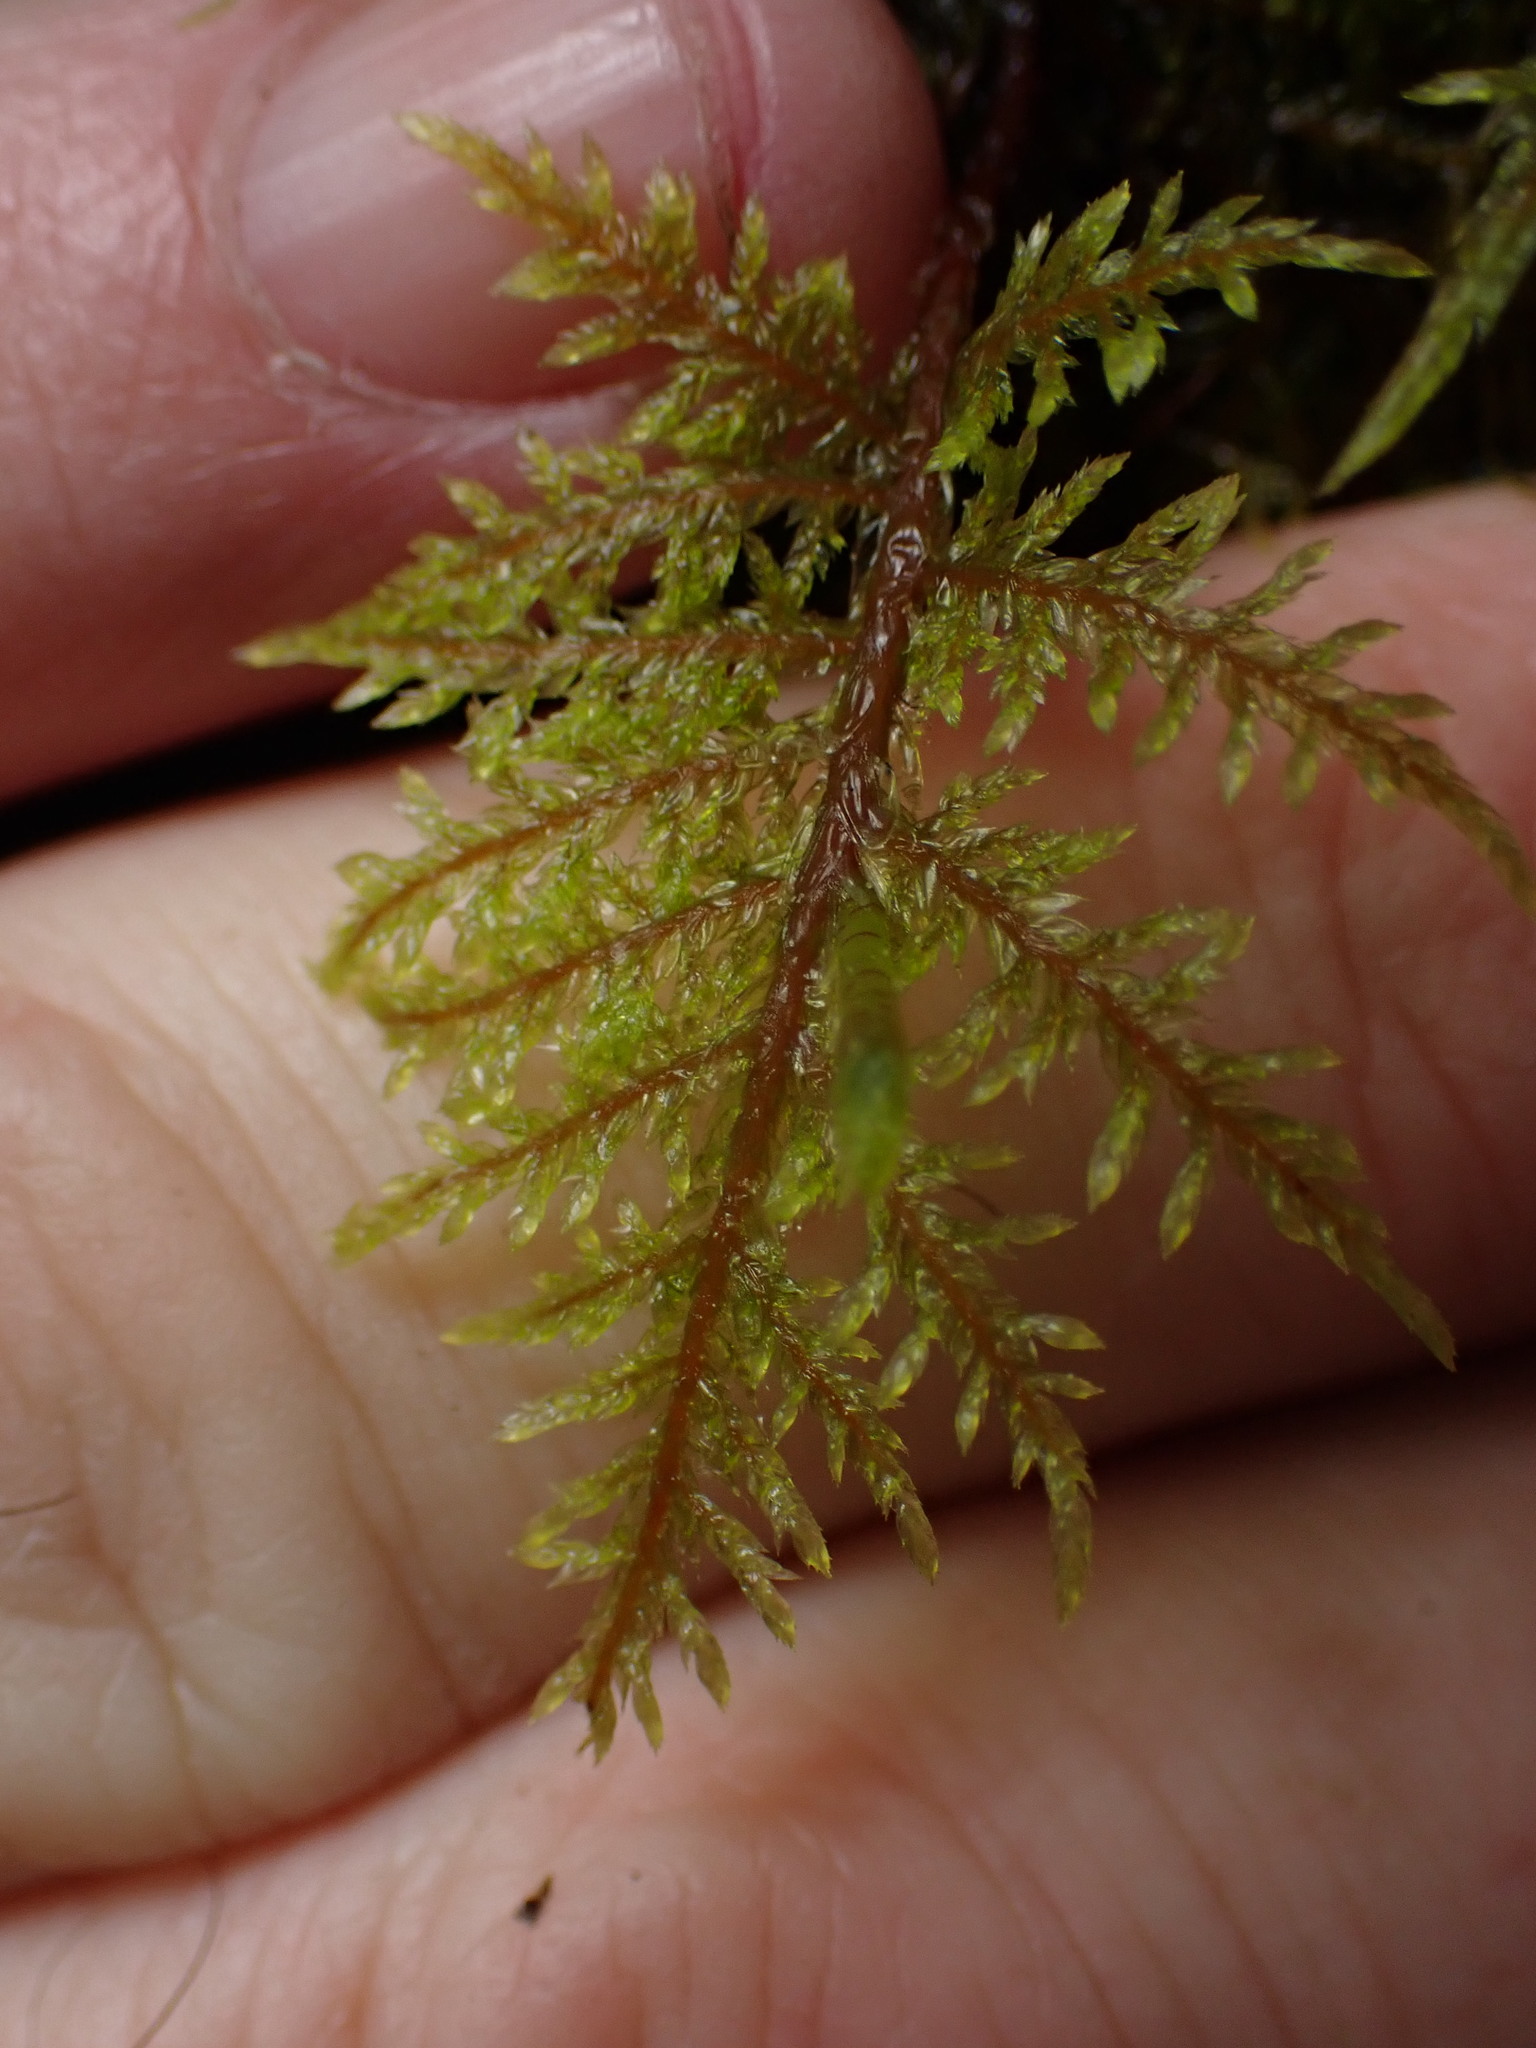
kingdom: Plantae
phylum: Bryophyta
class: Bryopsida
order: Hypnales
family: Hylocomiaceae
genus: Hylocomium
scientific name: Hylocomium splendens
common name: Stairstep moss
